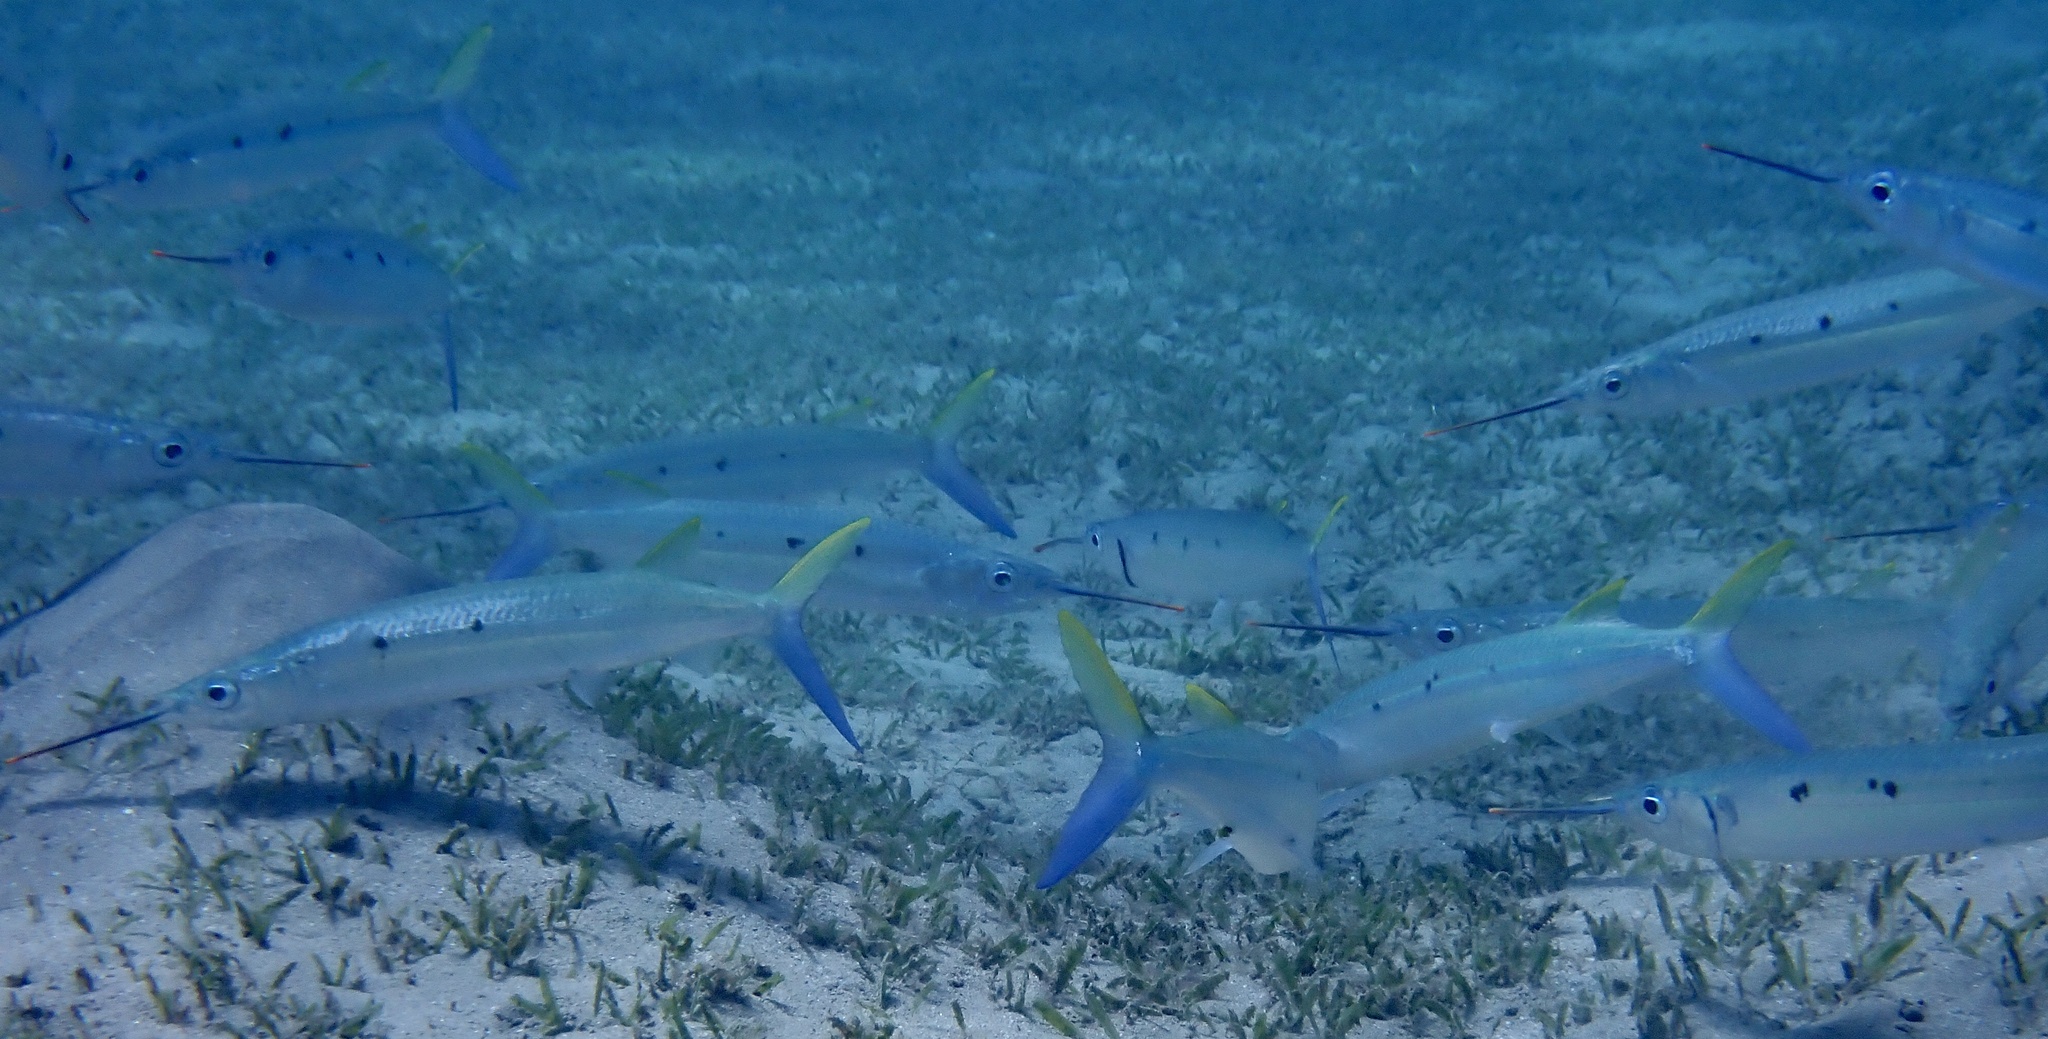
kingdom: Animalia
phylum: Chordata
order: Beloniformes
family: Hemiramphidae
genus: Hemiramphus
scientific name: Hemiramphus far
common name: Black-barred halfbeak
